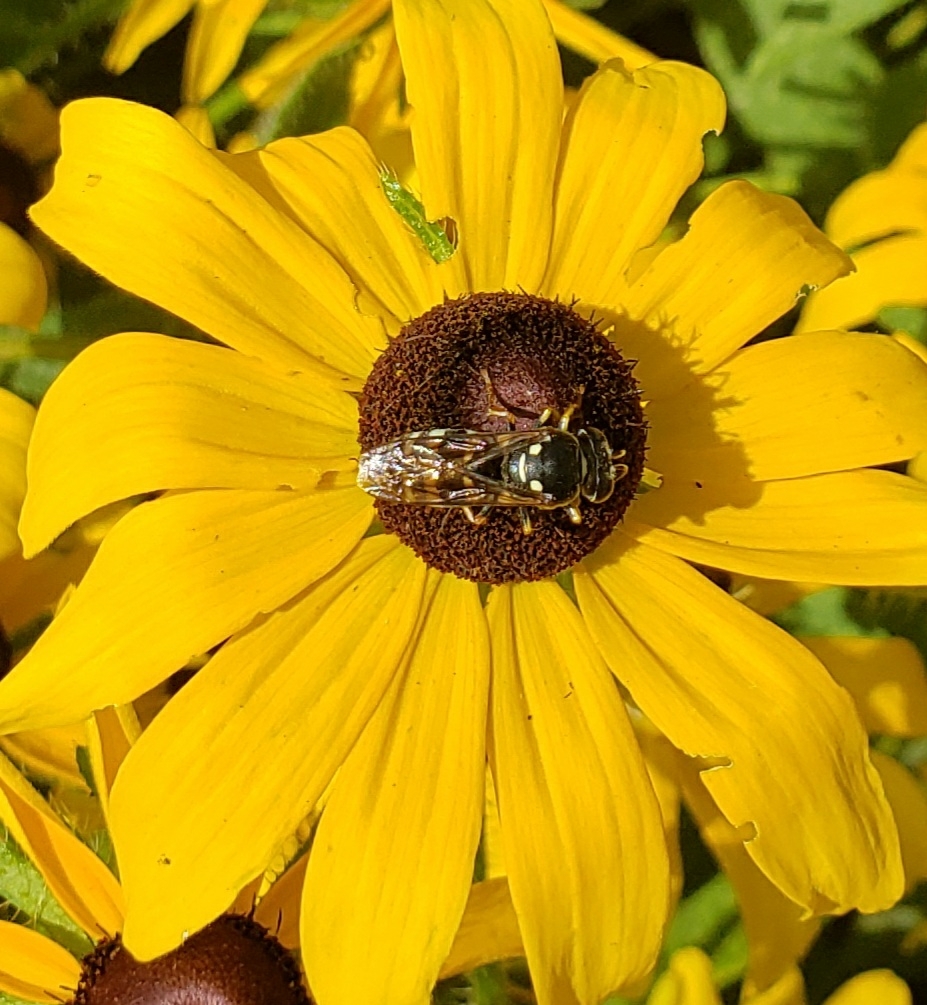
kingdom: Animalia
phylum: Arthropoda
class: Insecta
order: Hymenoptera
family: Crabronidae
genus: Bicyrtes
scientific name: Bicyrtes ventralis
